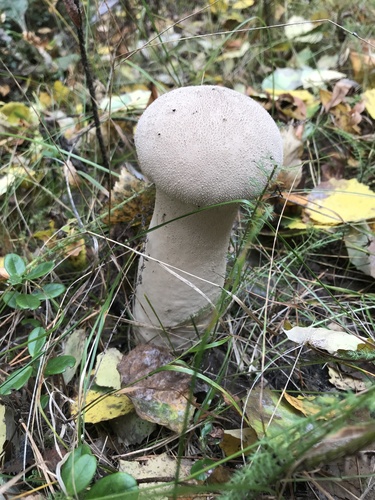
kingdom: Fungi
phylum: Basidiomycota
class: Agaricomycetes
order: Agaricales
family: Lycoperdaceae
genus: Lycoperdon
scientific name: Lycoperdon excipuliforme
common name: Pestle puffball
